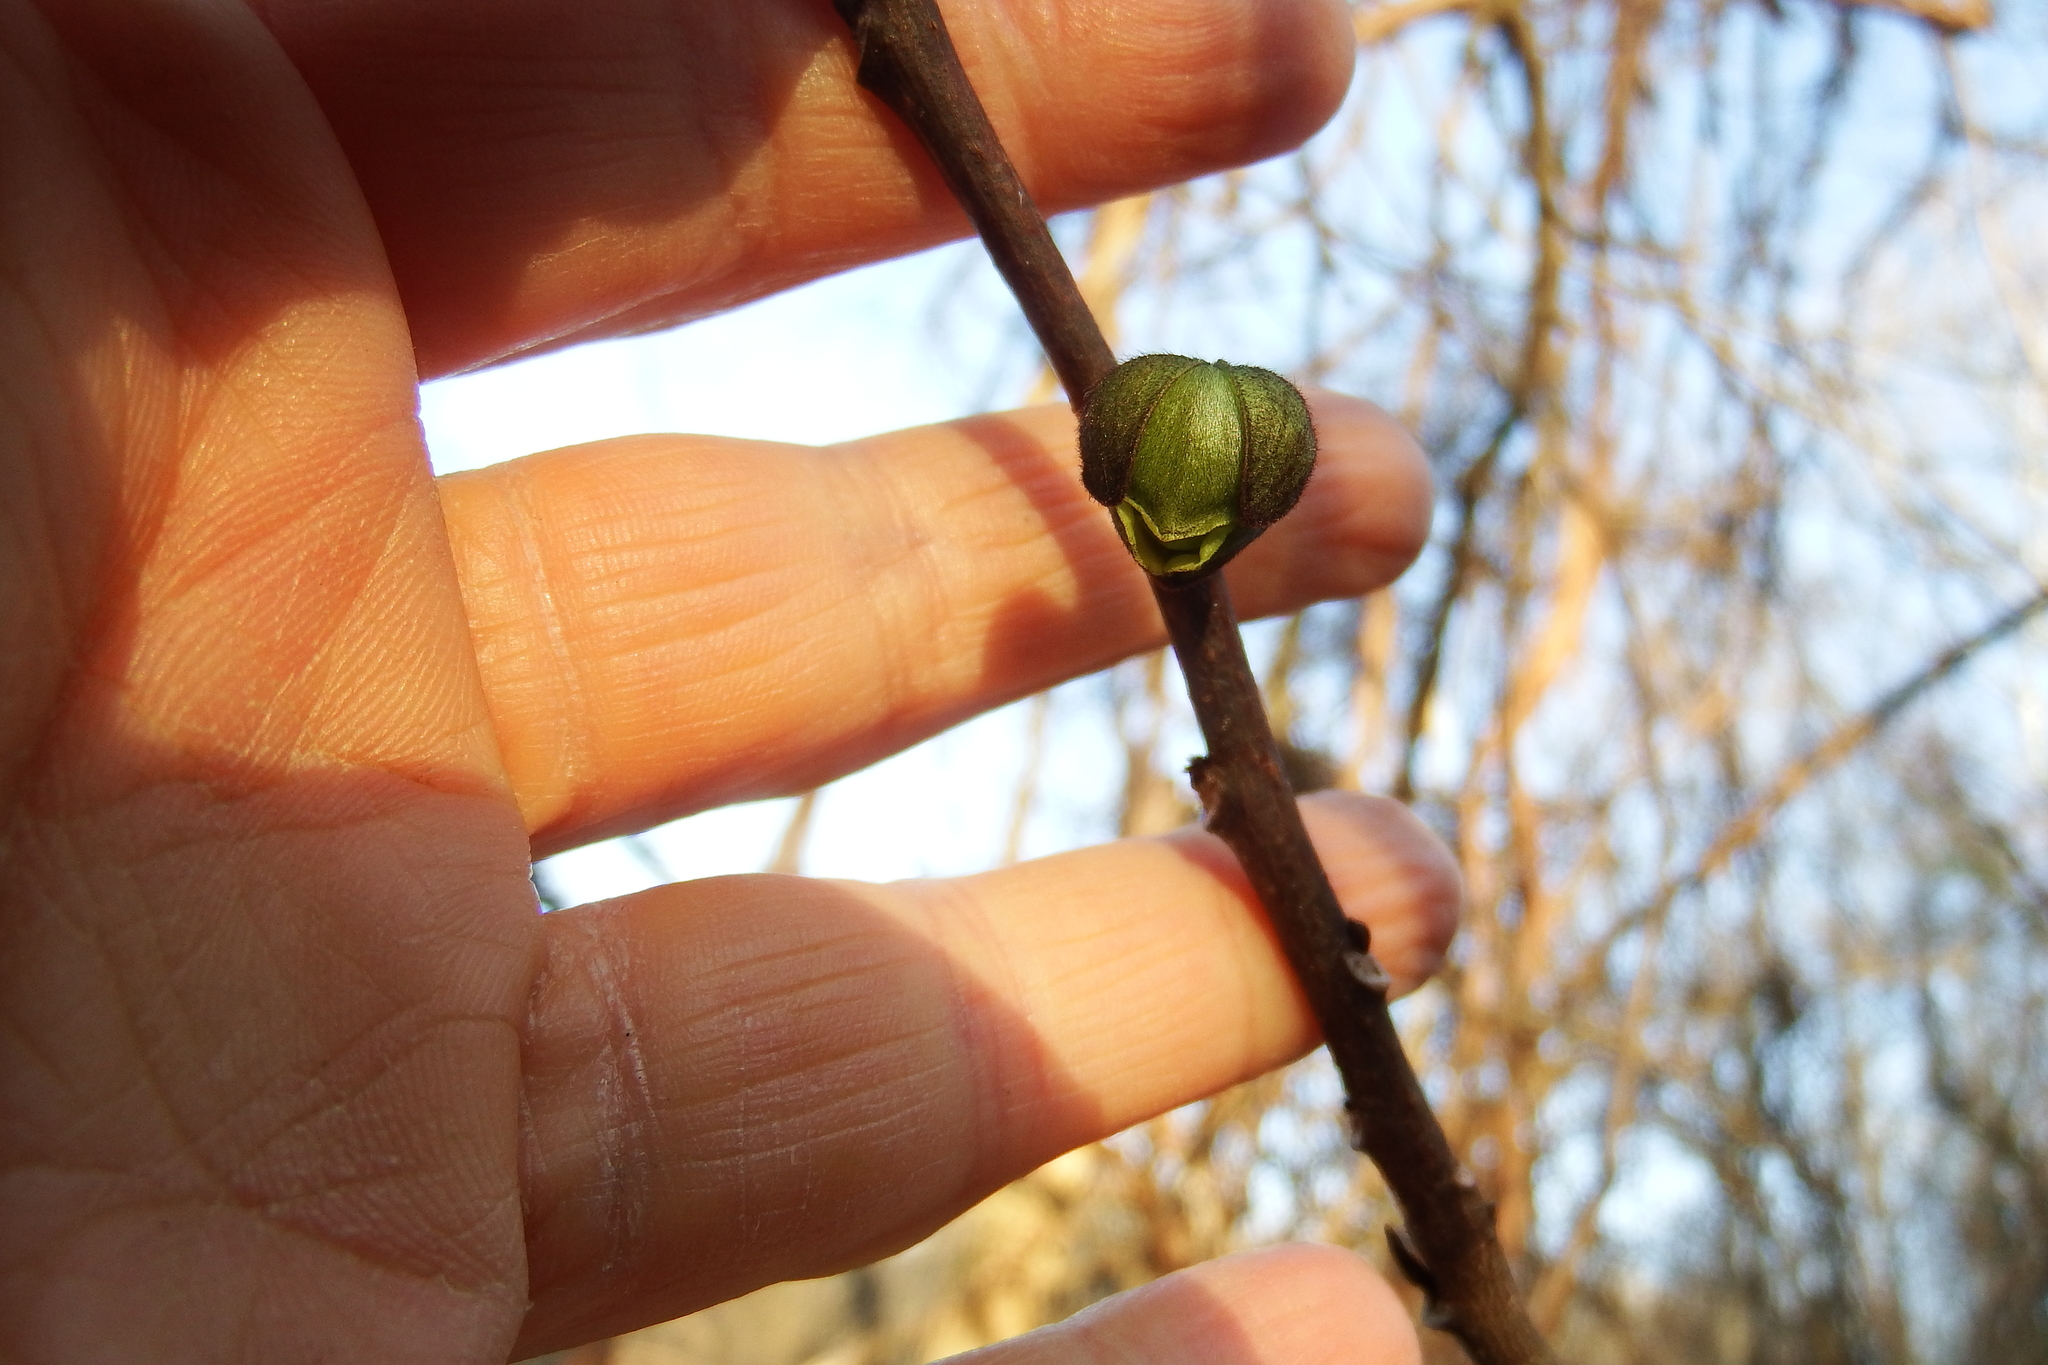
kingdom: Plantae
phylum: Tracheophyta
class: Magnoliopsida
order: Magnoliales
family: Annonaceae
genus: Asimina
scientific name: Asimina triloba
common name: Dog-banana
